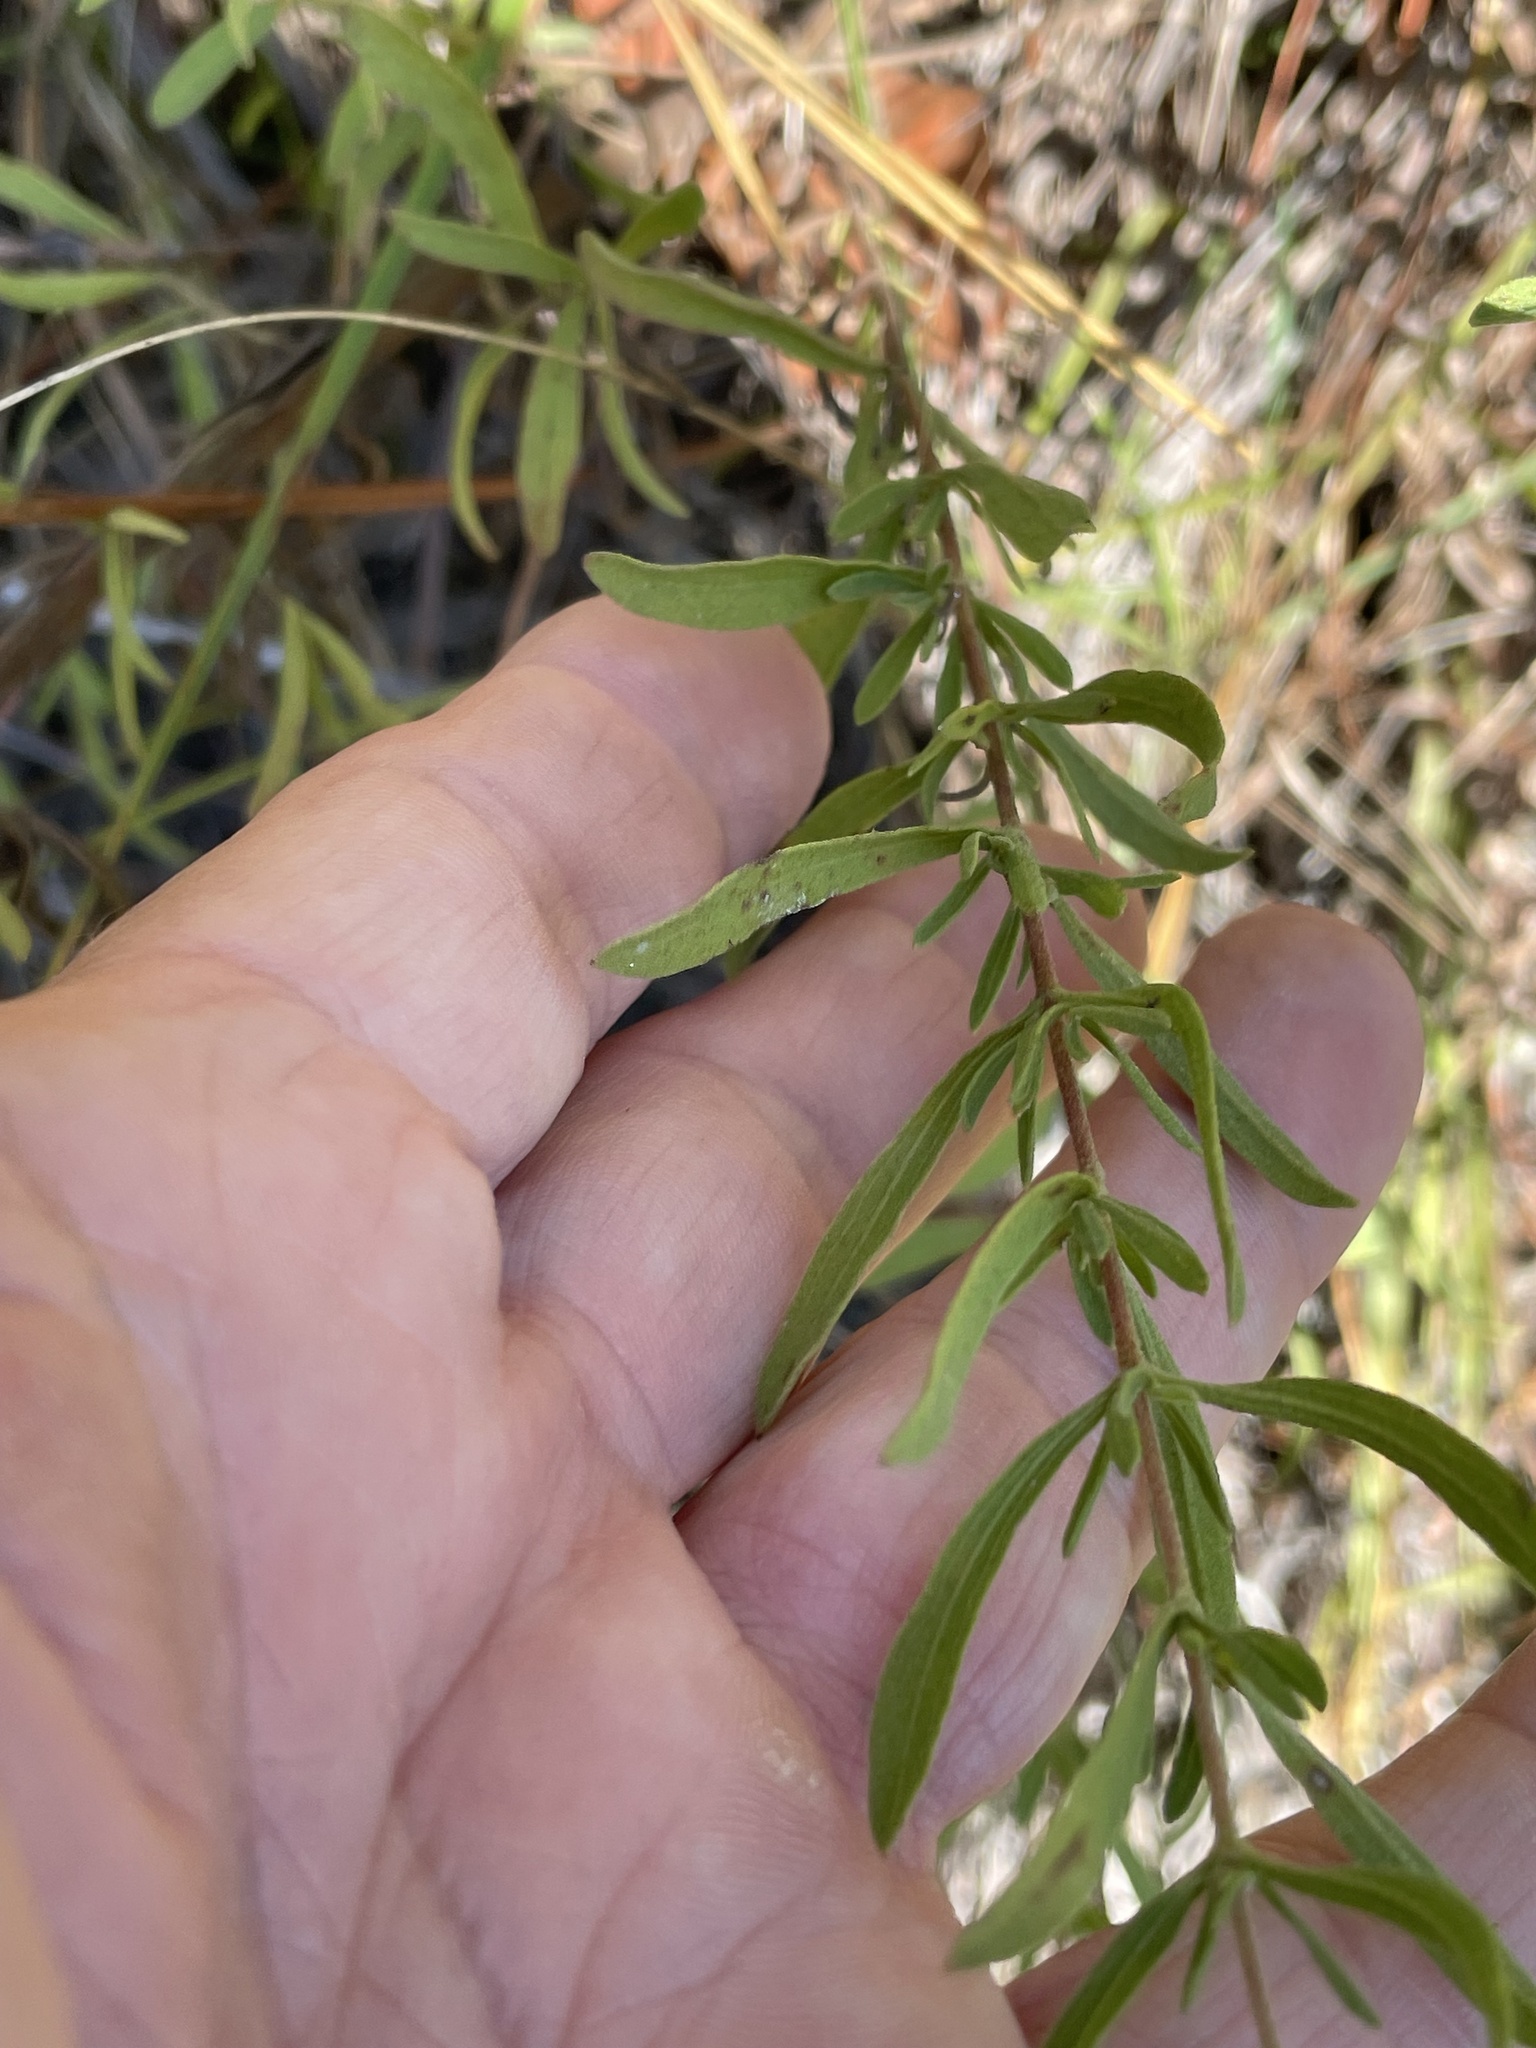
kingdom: Plantae
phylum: Tracheophyta
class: Magnoliopsida
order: Asterales
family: Asteraceae
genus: Eupatorium
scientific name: Eupatorium linearifolium
